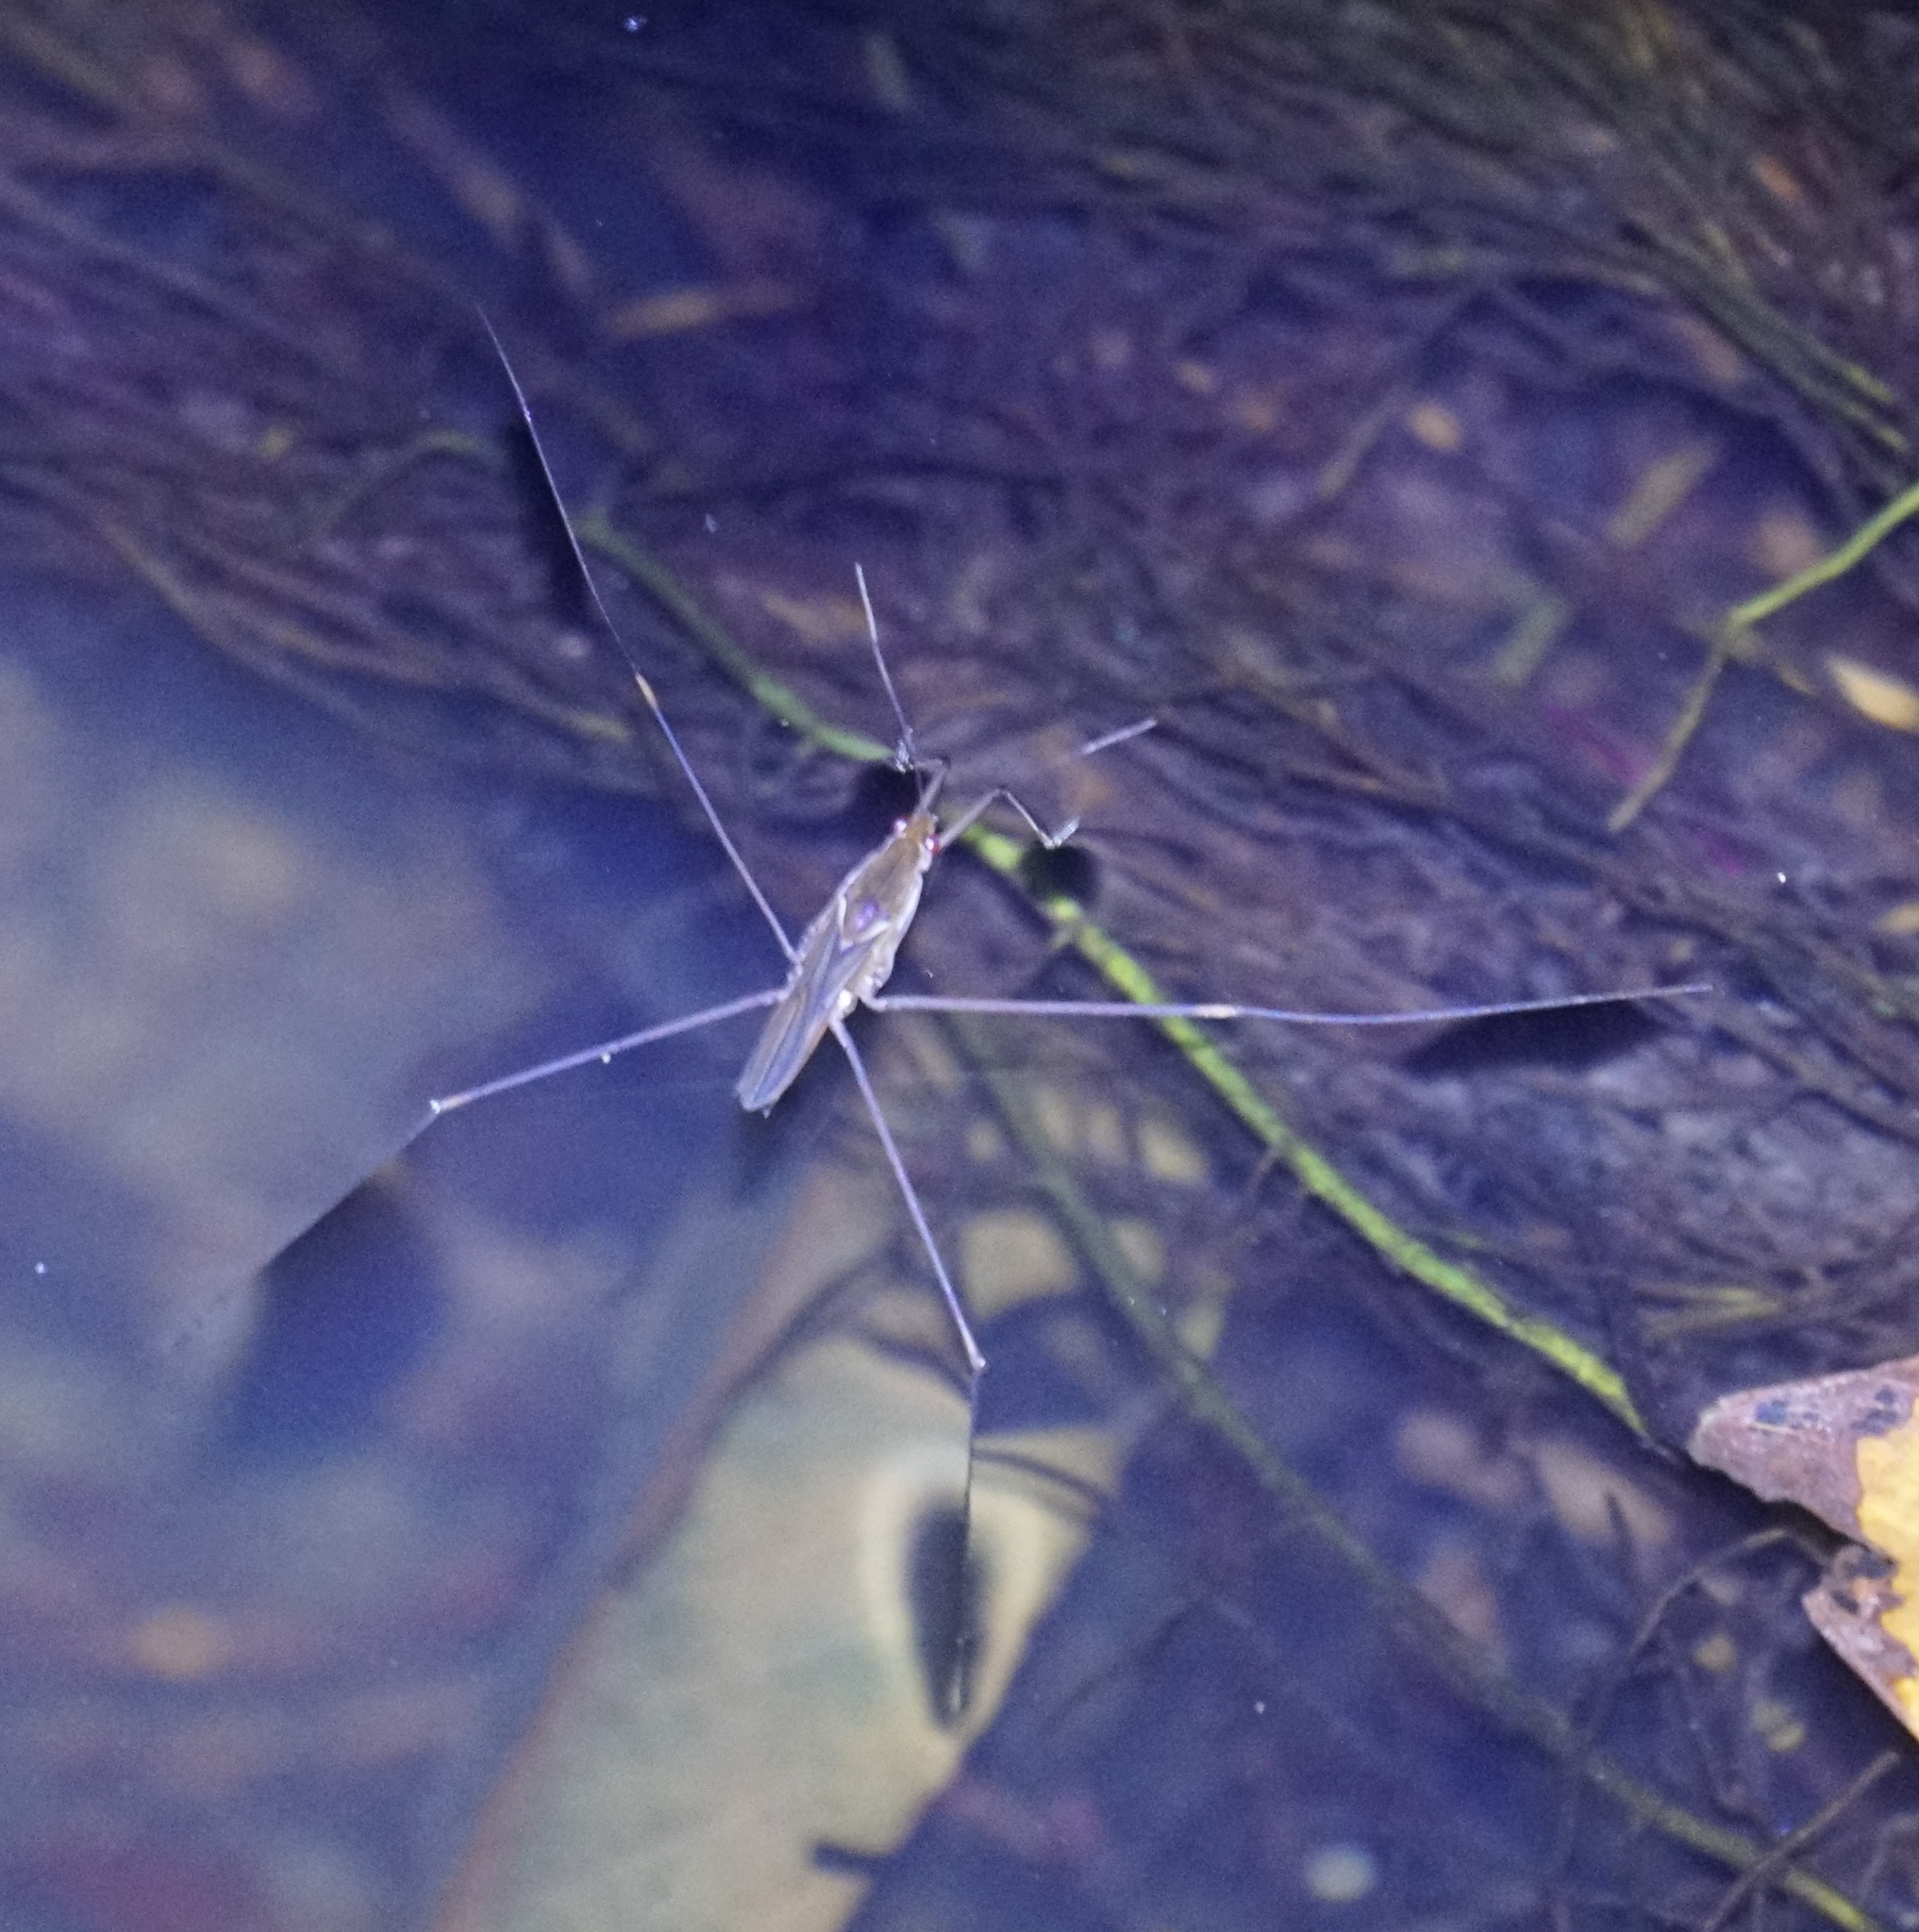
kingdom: Animalia
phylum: Arthropoda
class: Insecta
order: Hemiptera
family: Gerridae
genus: Limnometra
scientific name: Limnometra
